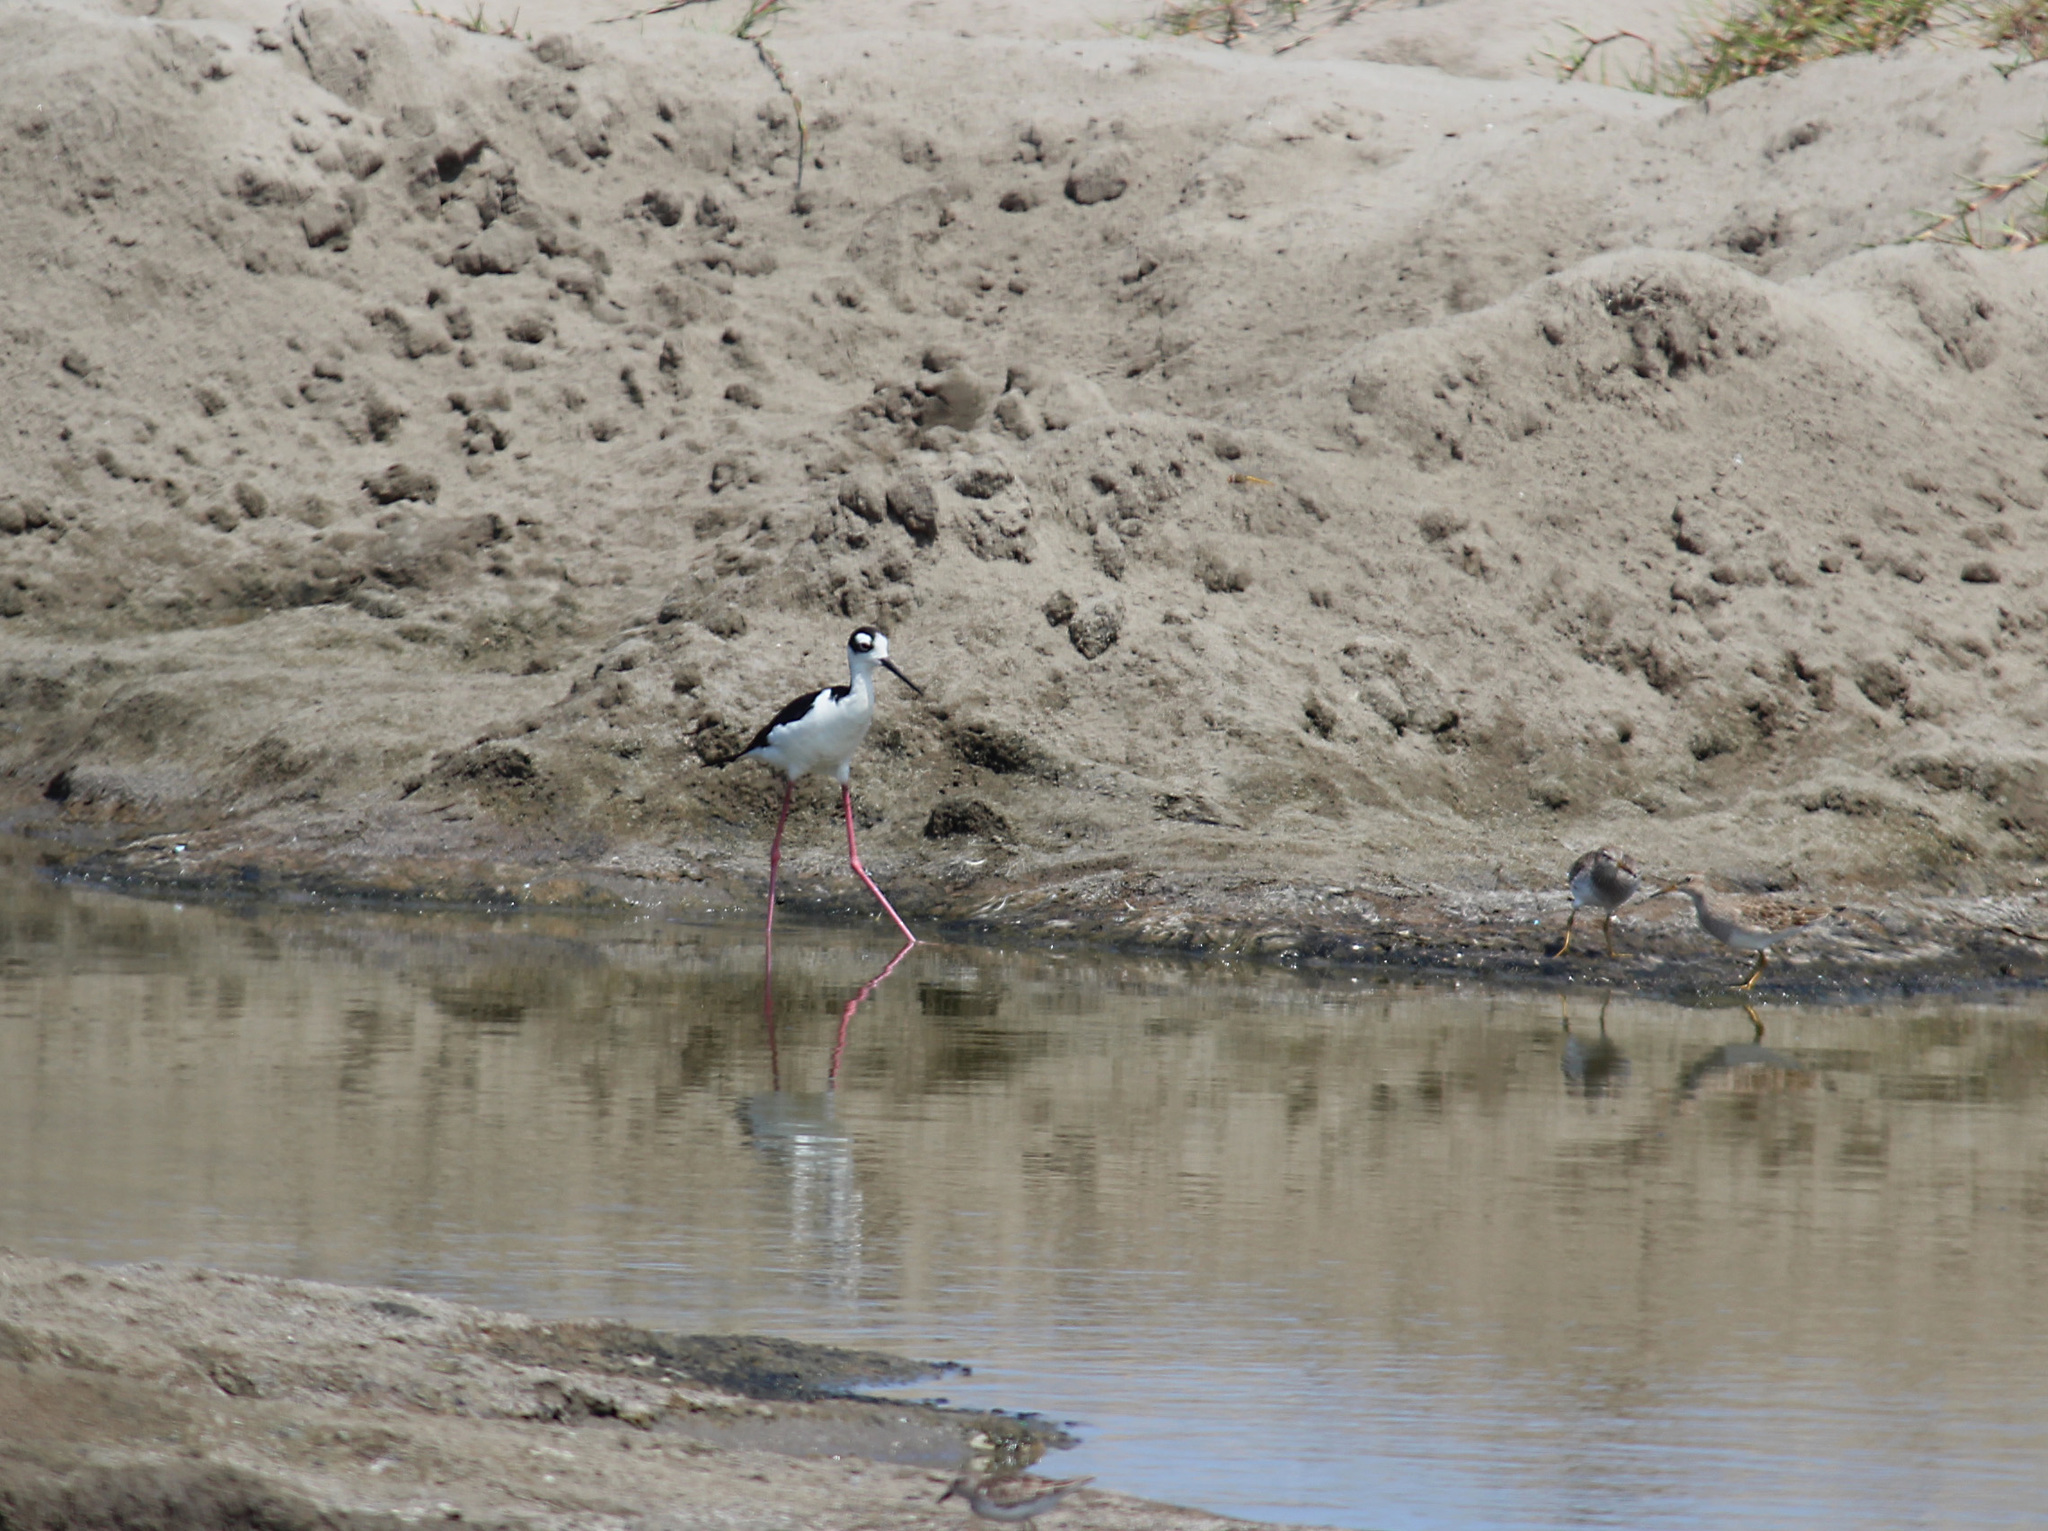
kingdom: Animalia
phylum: Chordata
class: Aves
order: Charadriiformes
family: Recurvirostridae
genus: Himantopus
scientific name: Himantopus mexicanus
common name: Black-necked stilt
